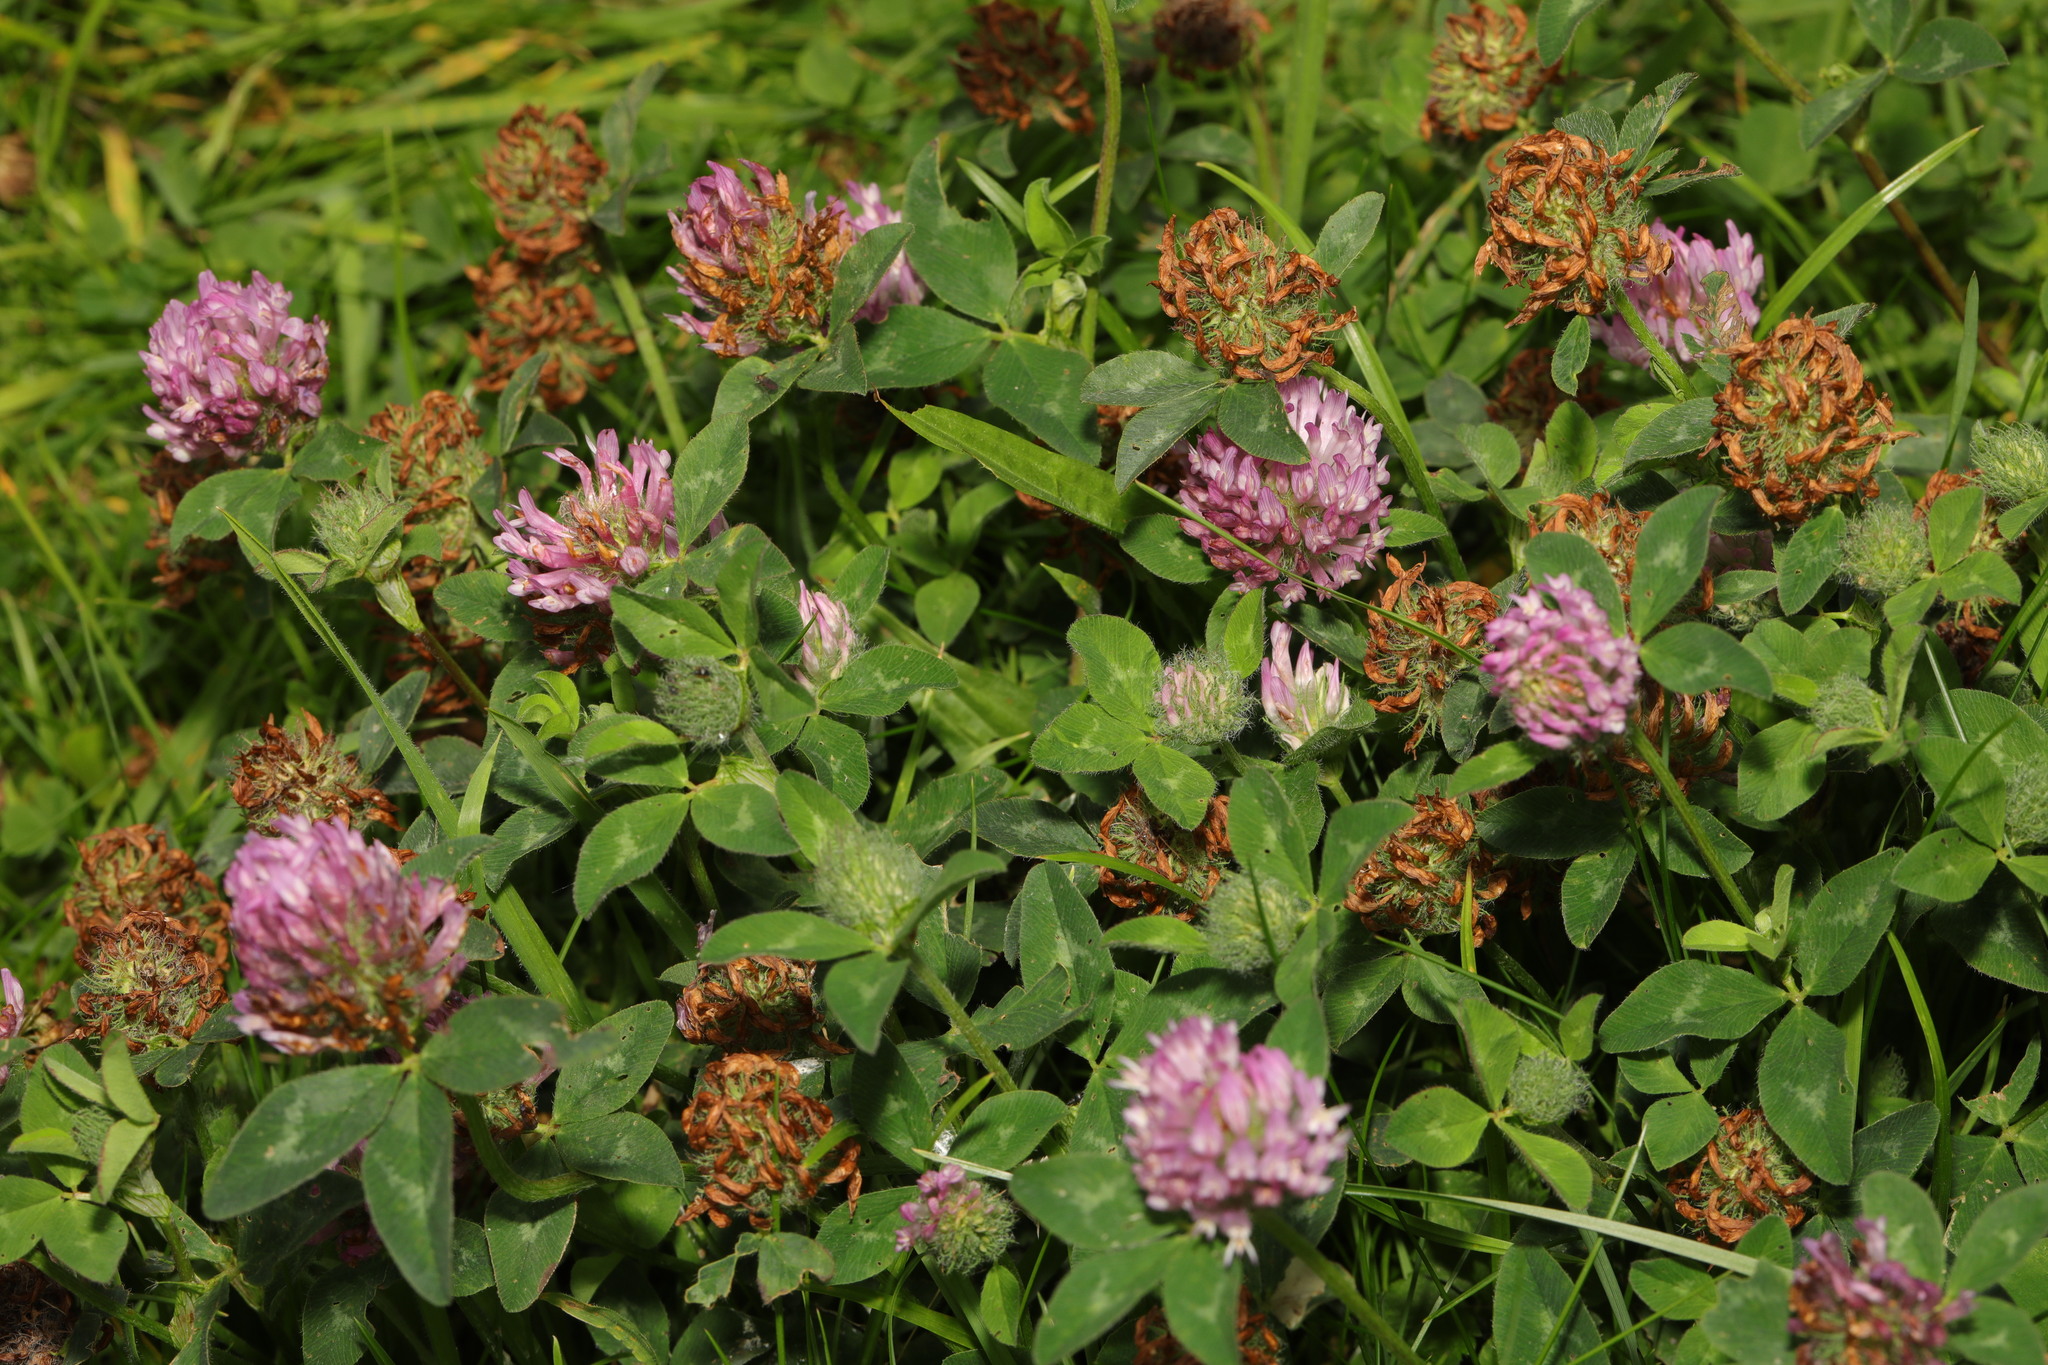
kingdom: Plantae
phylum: Tracheophyta
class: Magnoliopsida
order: Fabales
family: Fabaceae
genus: Trifolium
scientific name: Trifolium pratense
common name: Red clover
